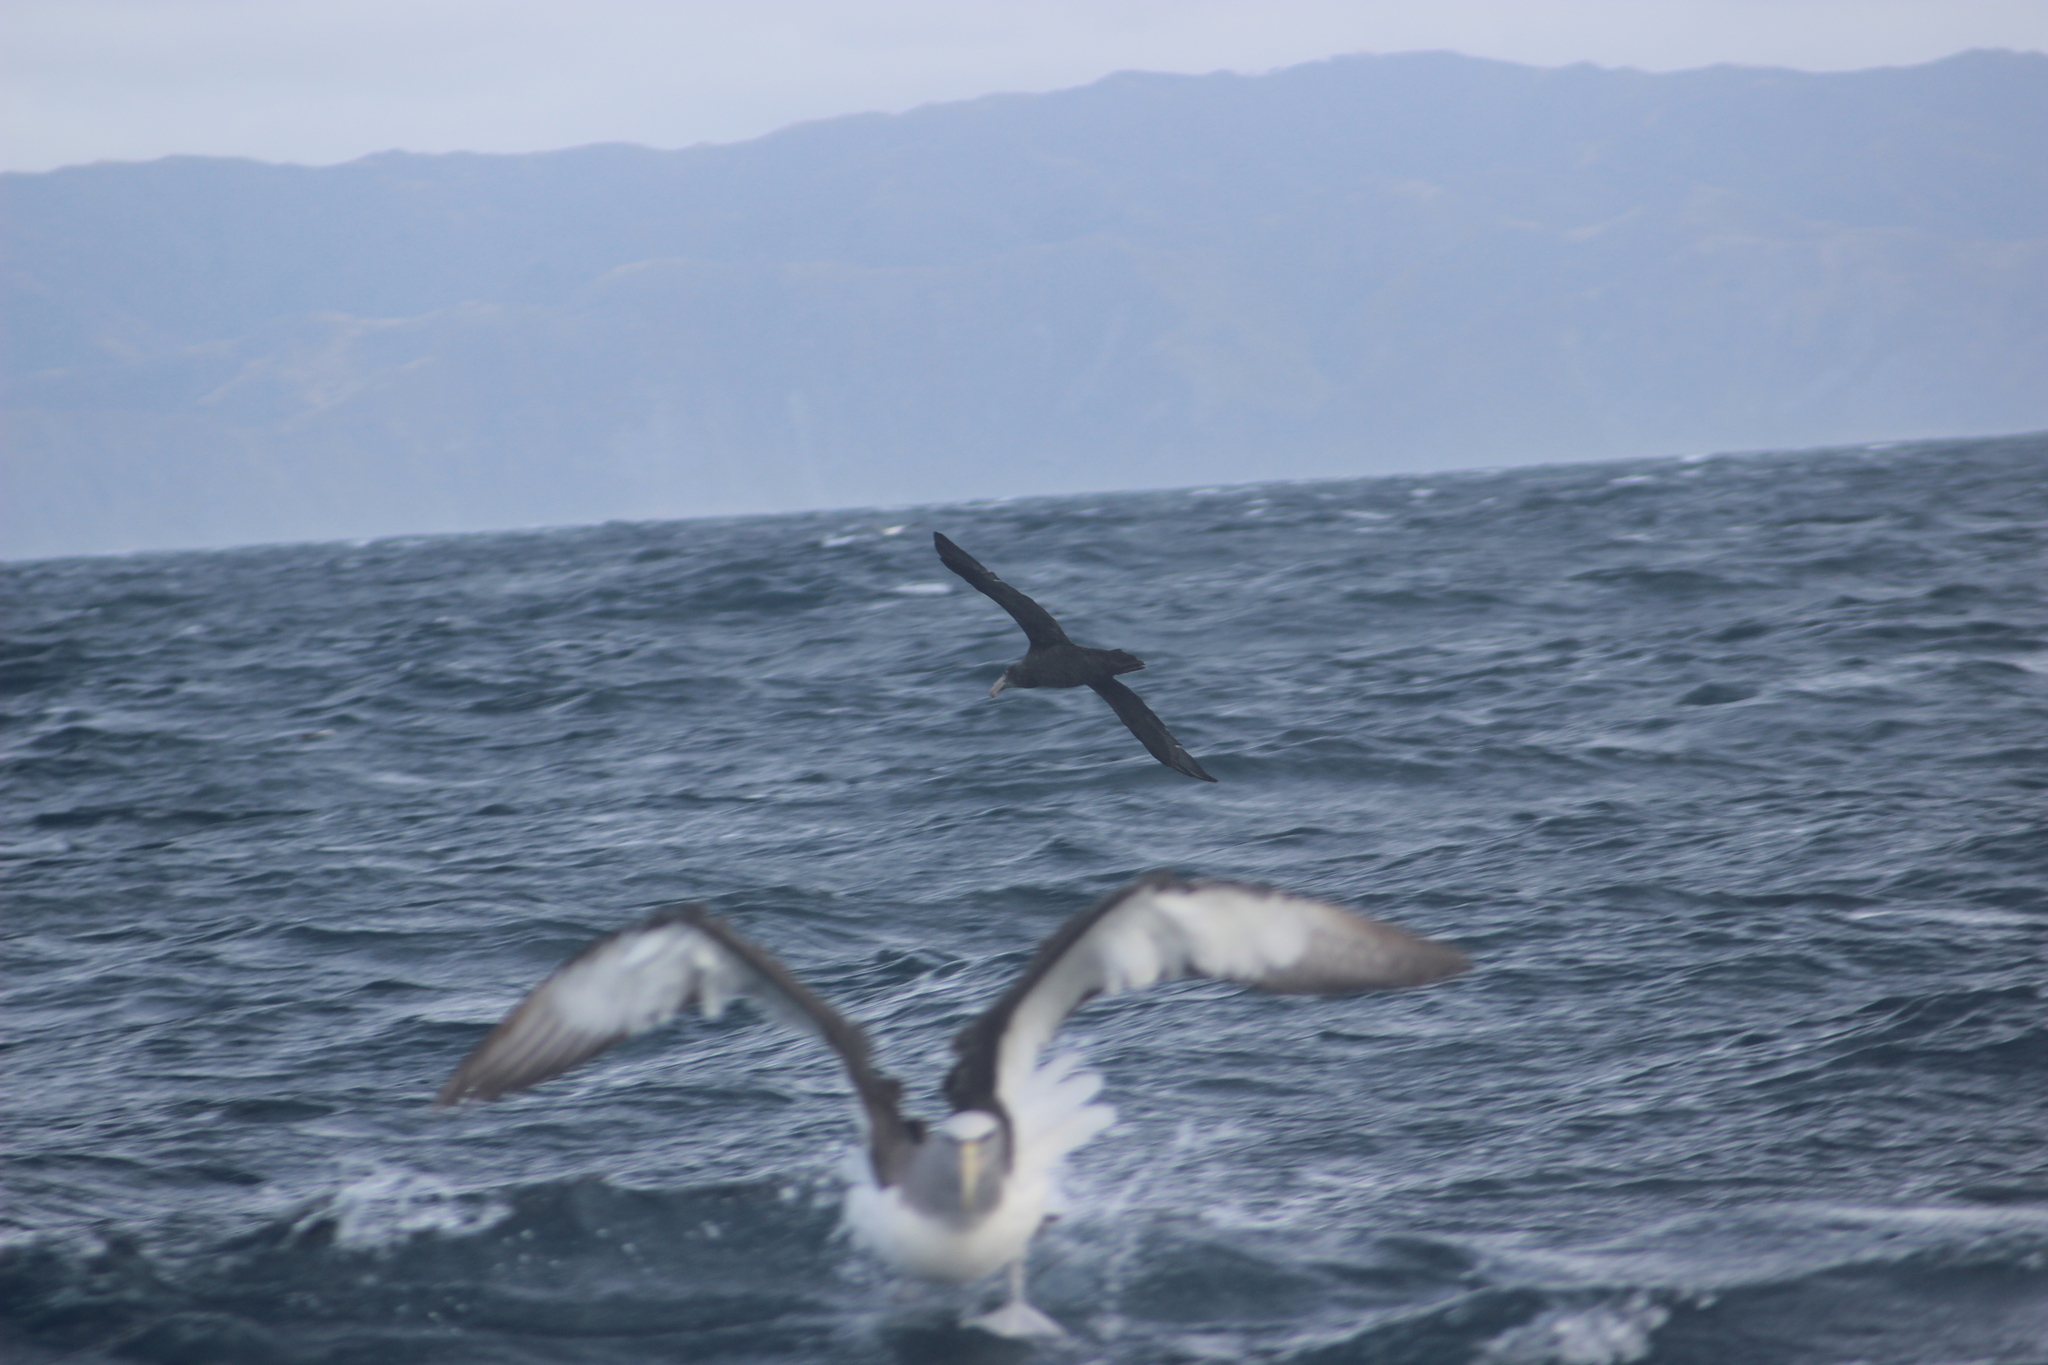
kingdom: Animalia
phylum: Chordata
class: Aves
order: Procellariiformes
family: Procellariidae
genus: Macronectes
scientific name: Macronectes giganteus
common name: Southern giant petrel
